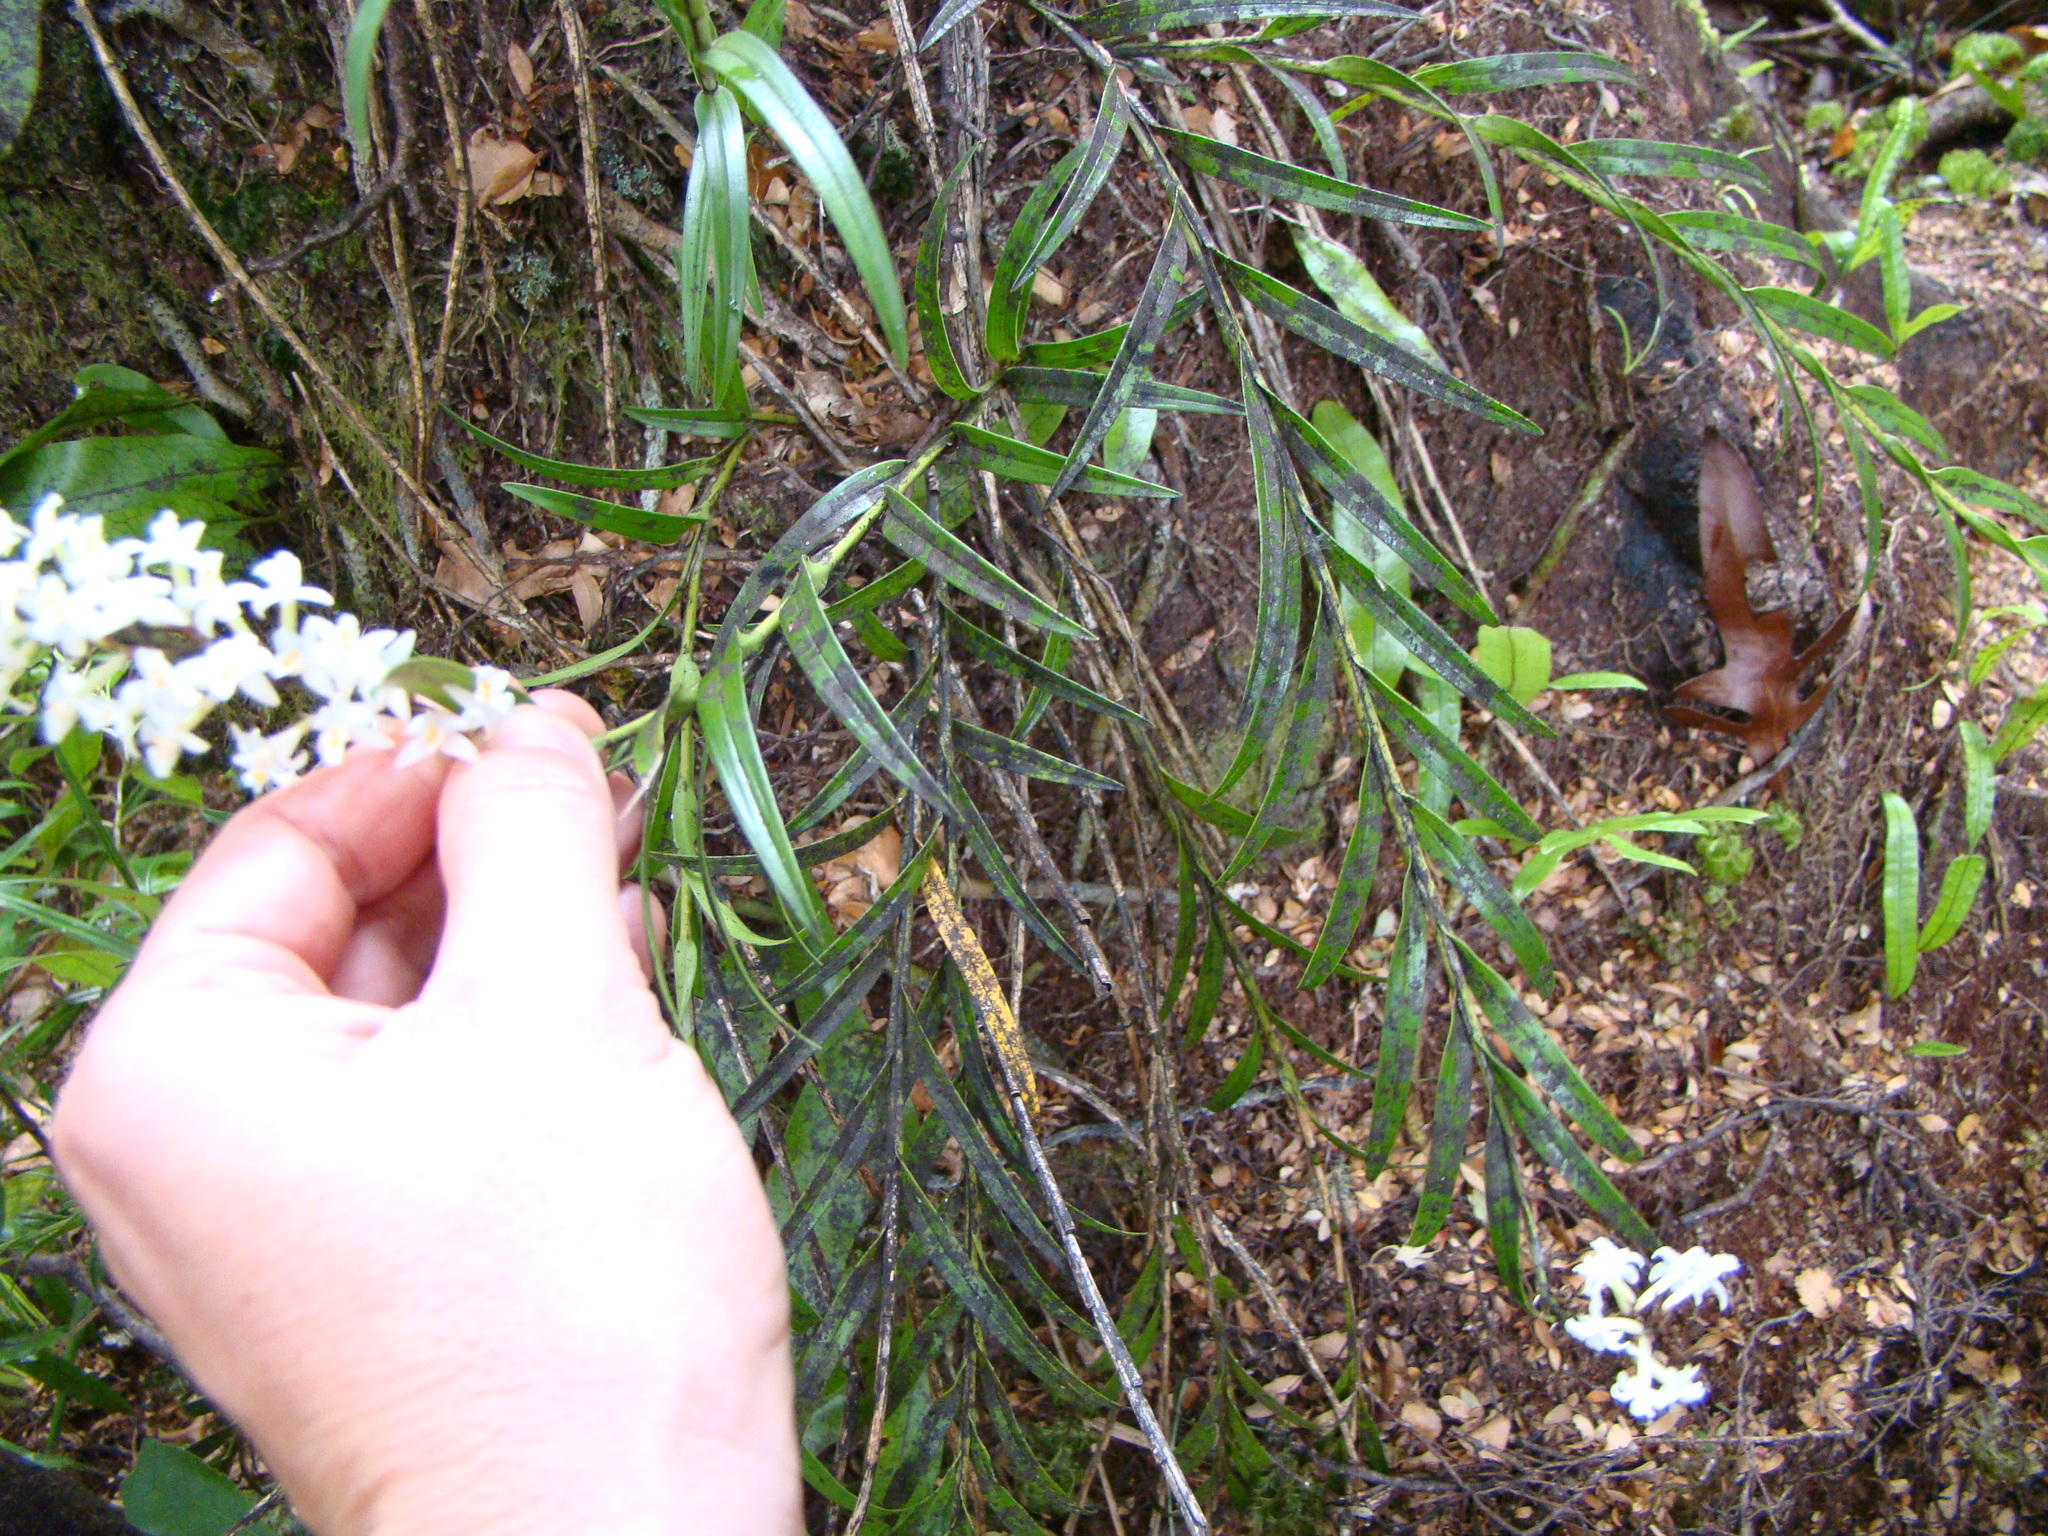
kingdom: Plantae
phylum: Tracheophyta
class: Liliopsida
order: Asparagales
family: Orchidaceae
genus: Earina
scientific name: Earina autumnalis
